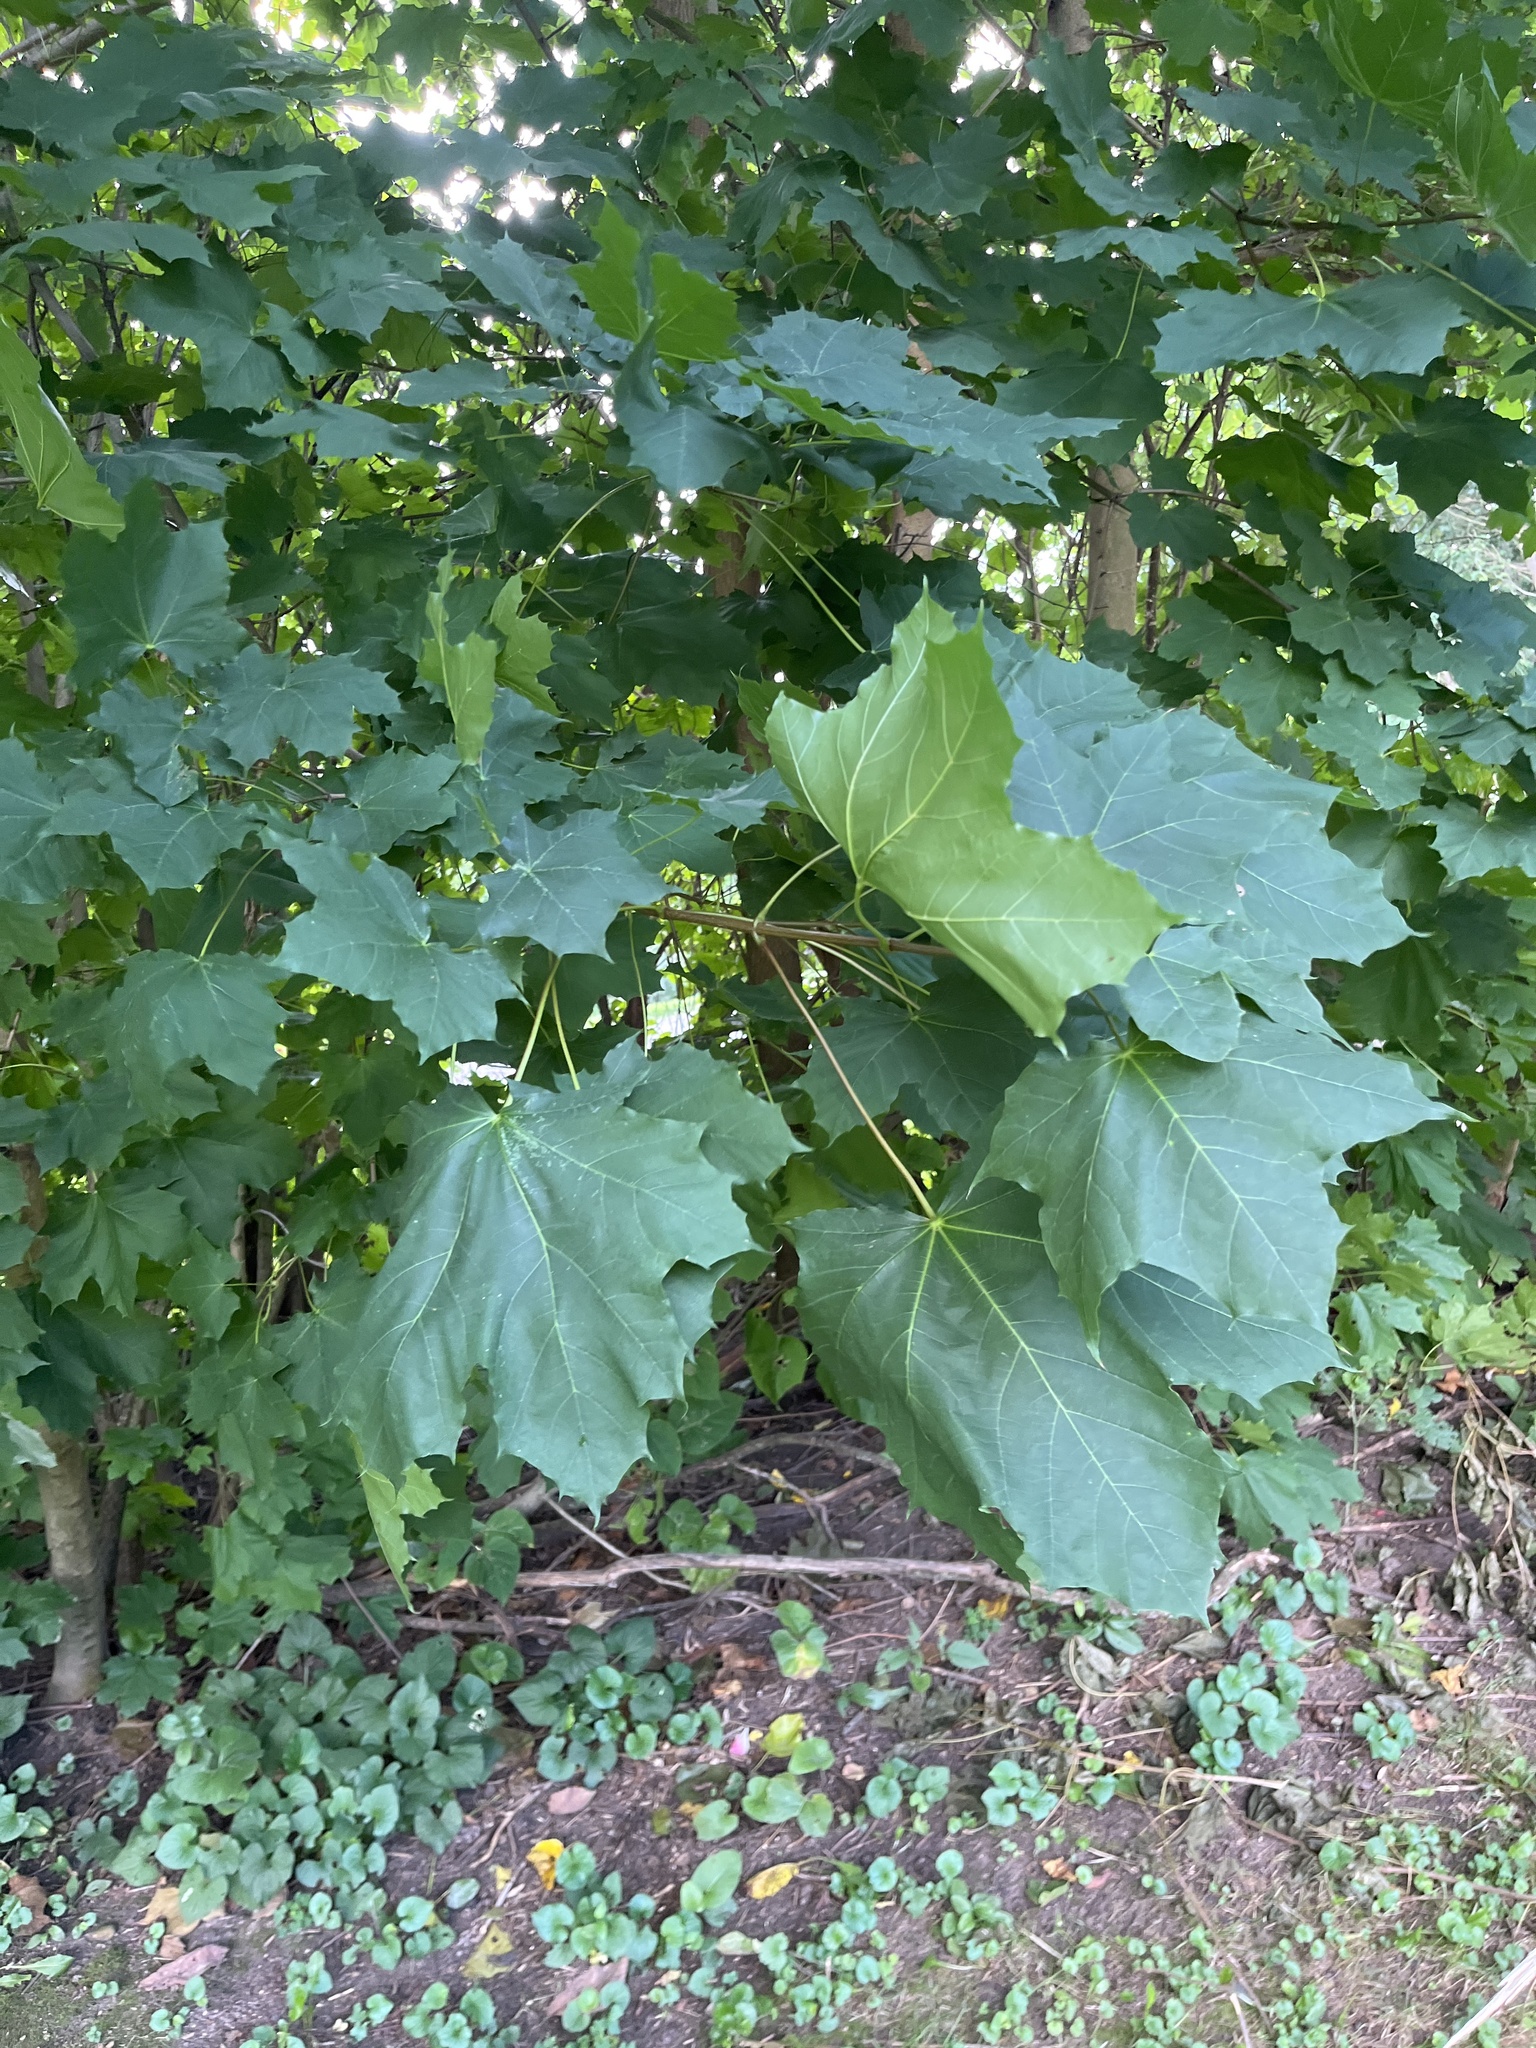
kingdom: Plantae
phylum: Tracheophyta
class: Magnoliopsida
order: Sapindales
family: Sapindaceae
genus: Acer
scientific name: Acer platanoides
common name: Norway maple
